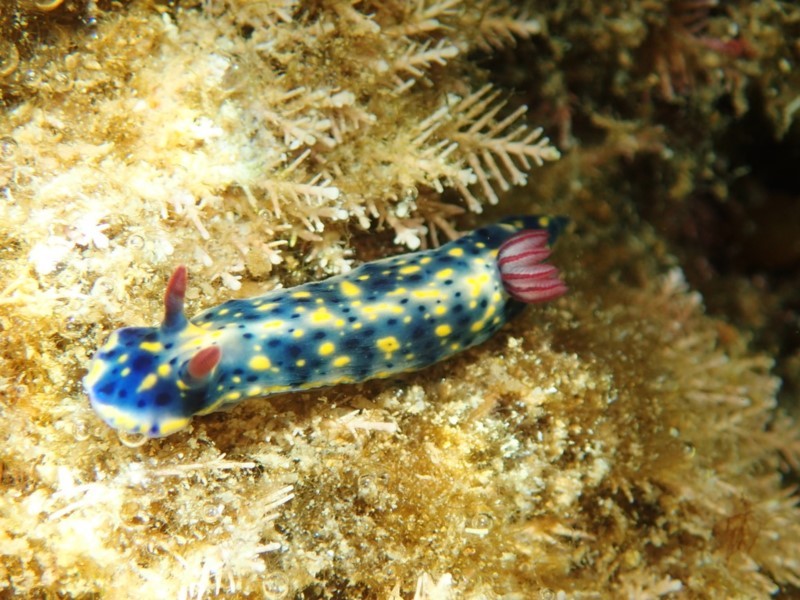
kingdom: Animalia
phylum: Mollusca
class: Gastropoda
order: Nudibranchia
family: Chromodorididae
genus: Hypselodoris
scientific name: Hypselodoris obscura
